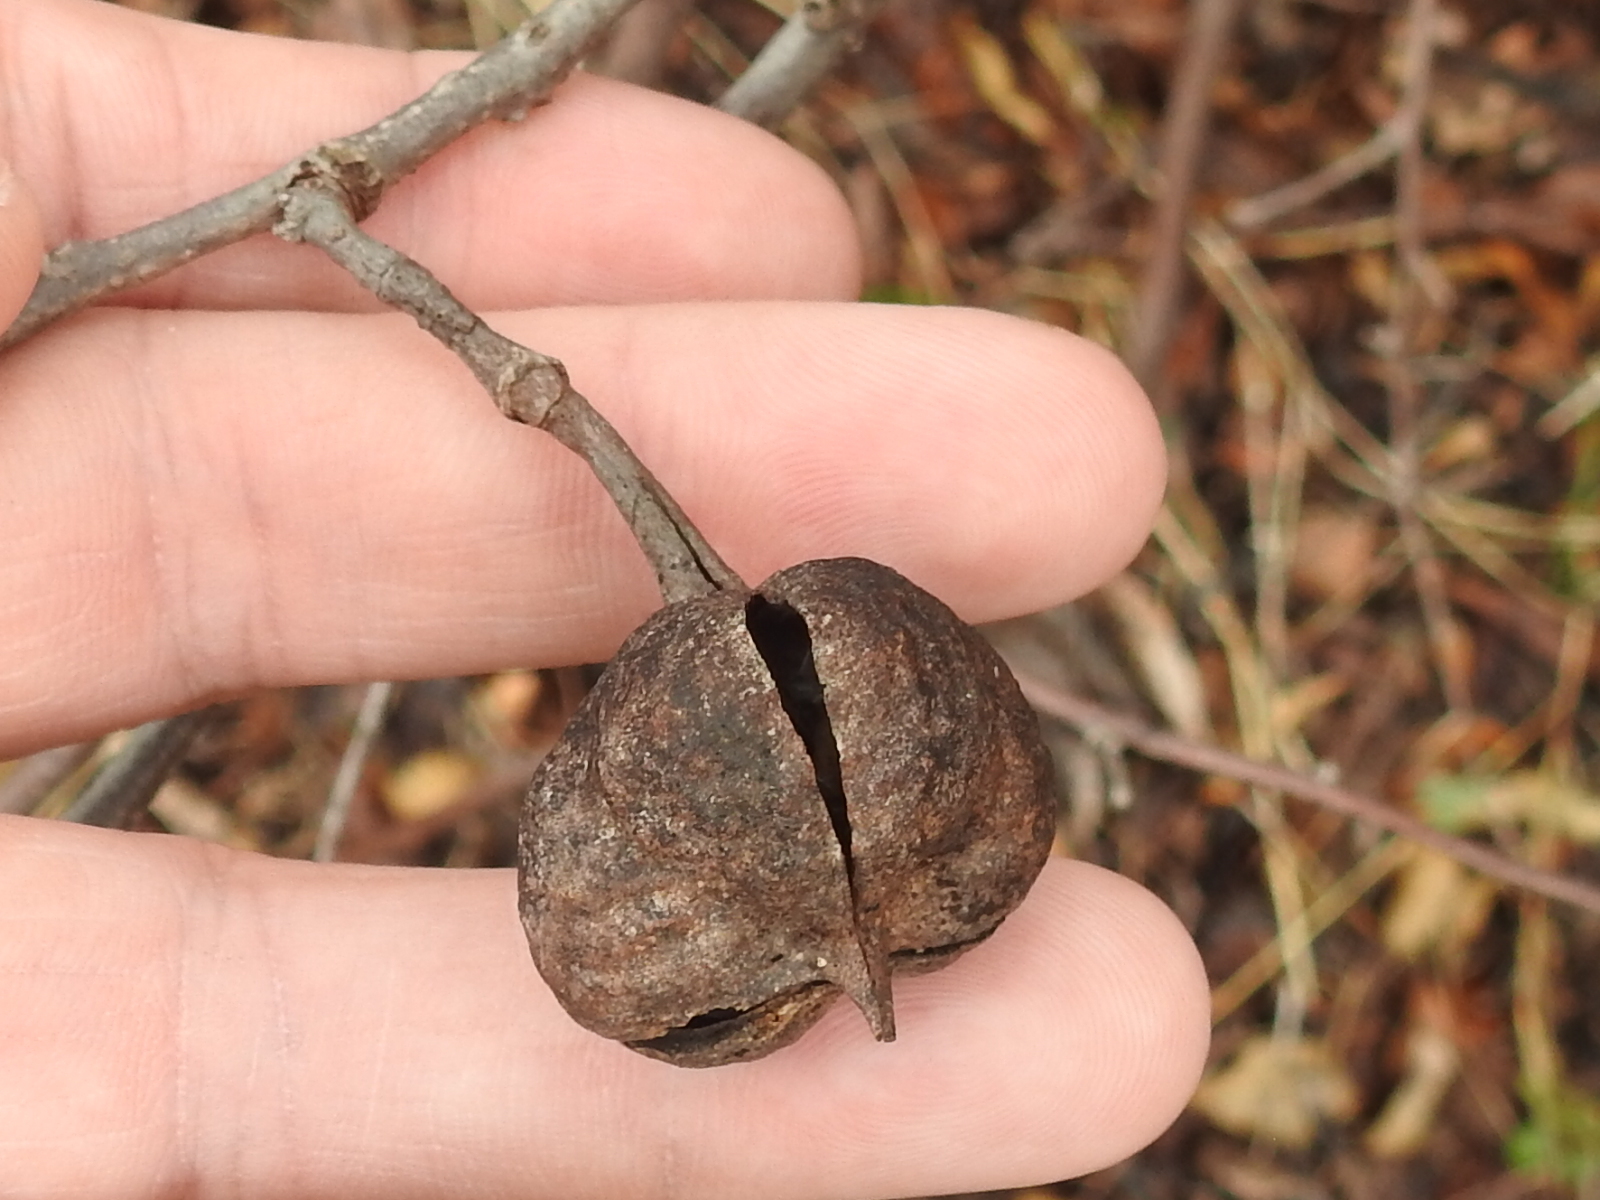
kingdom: Plantae
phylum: Tracheophyta
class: Magnoliopsida
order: Sapindales
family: Sapindaceae
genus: Ungnadia
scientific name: Ungnadia speciosa
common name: Texas-buckeye
